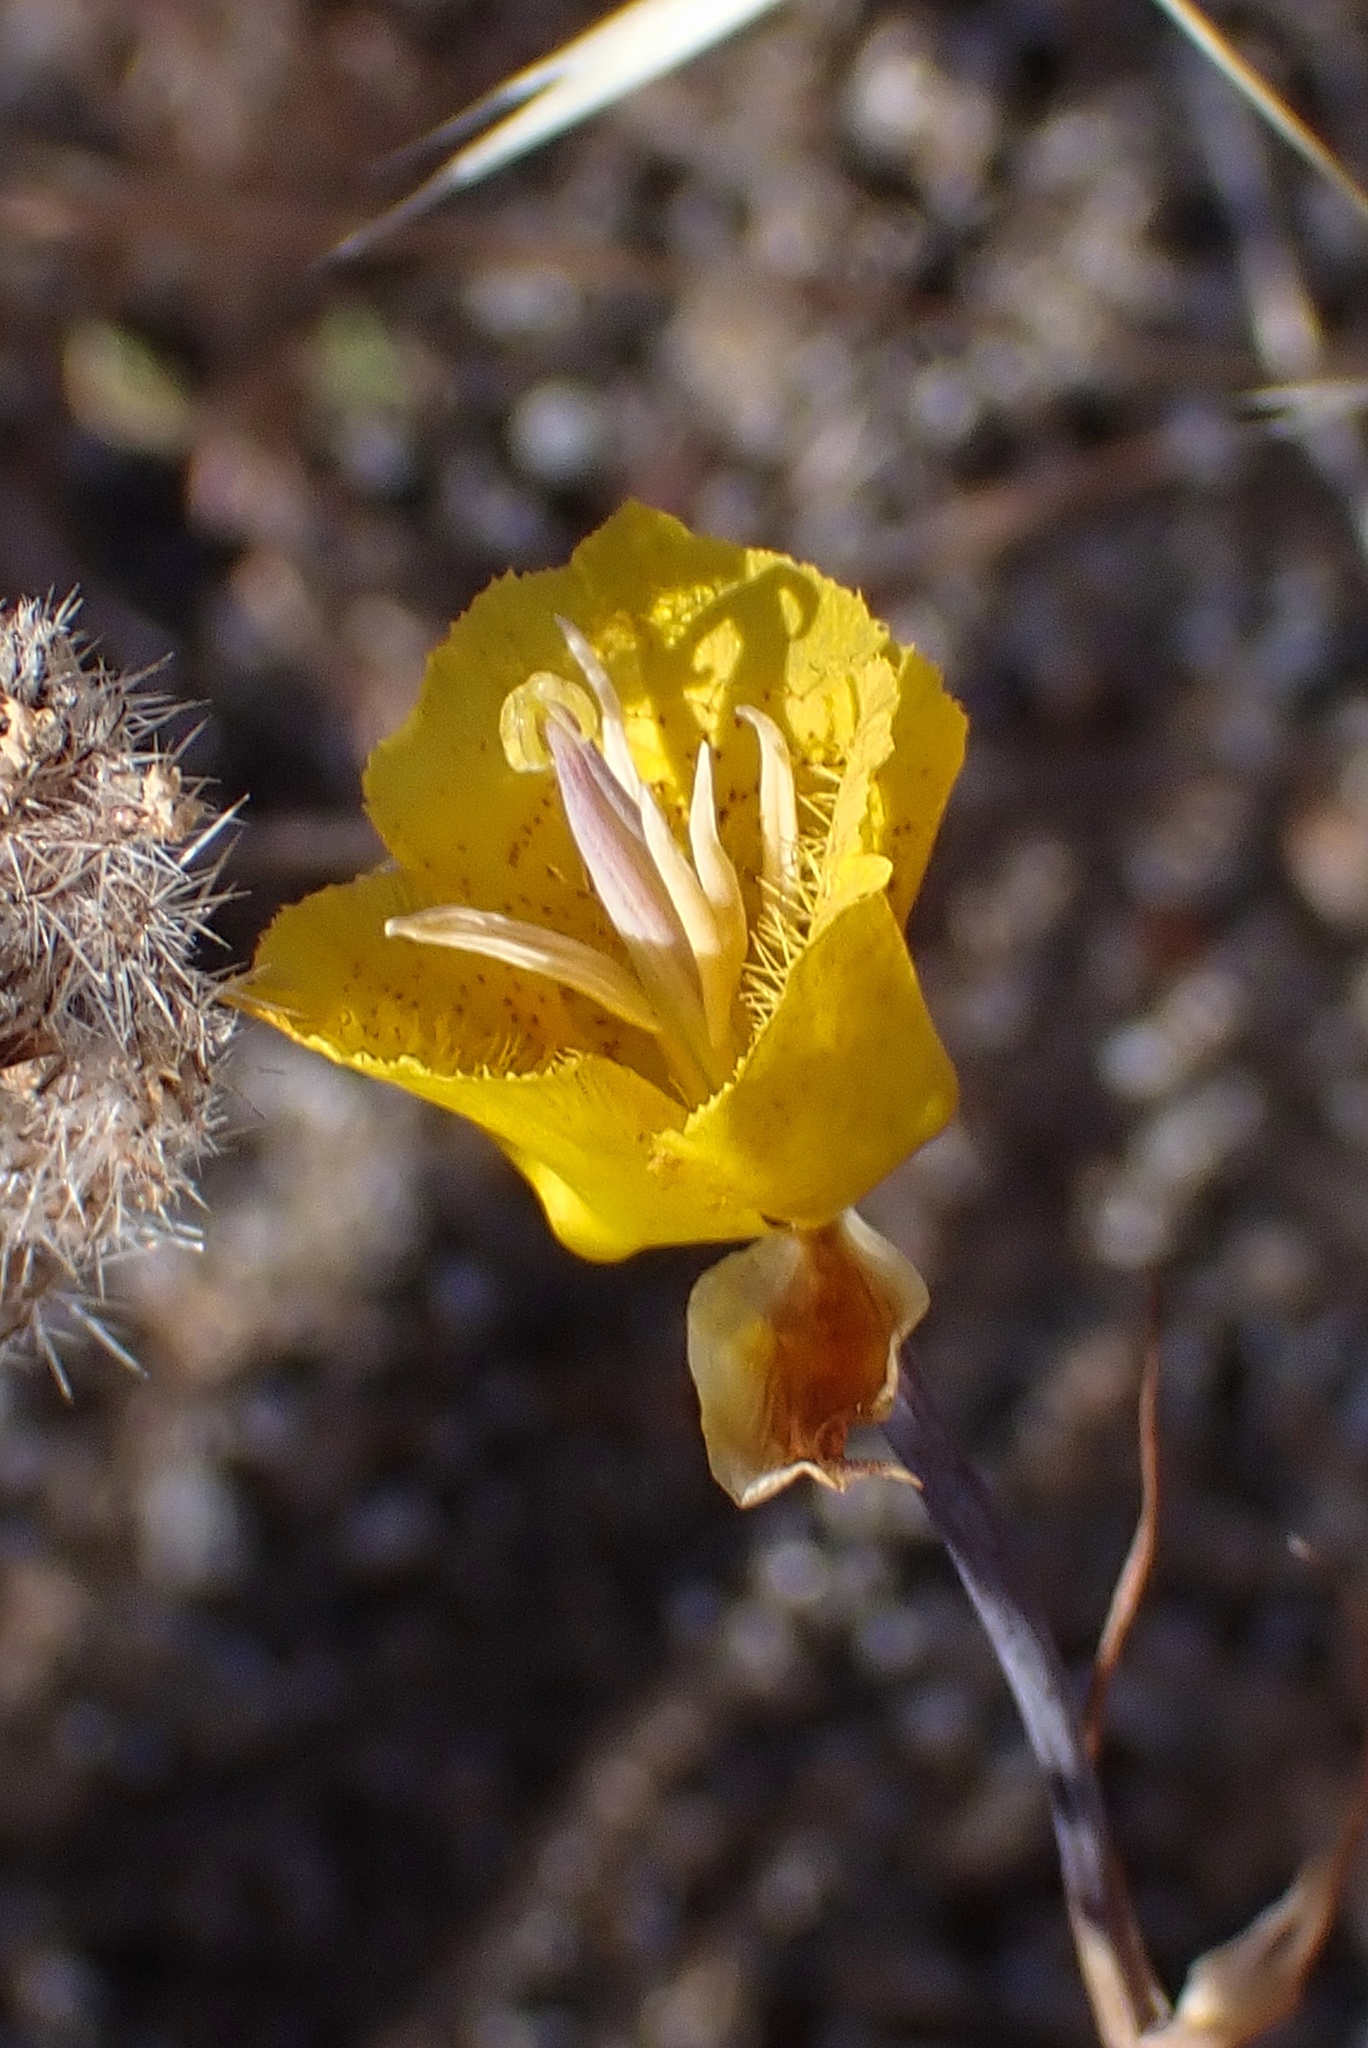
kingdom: Plantae
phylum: Tracheophyta
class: Liliopsida
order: Liliales
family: Liliaceae
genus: Calochortus
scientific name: Calochortus weedii
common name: Weed's mariposa-lily
